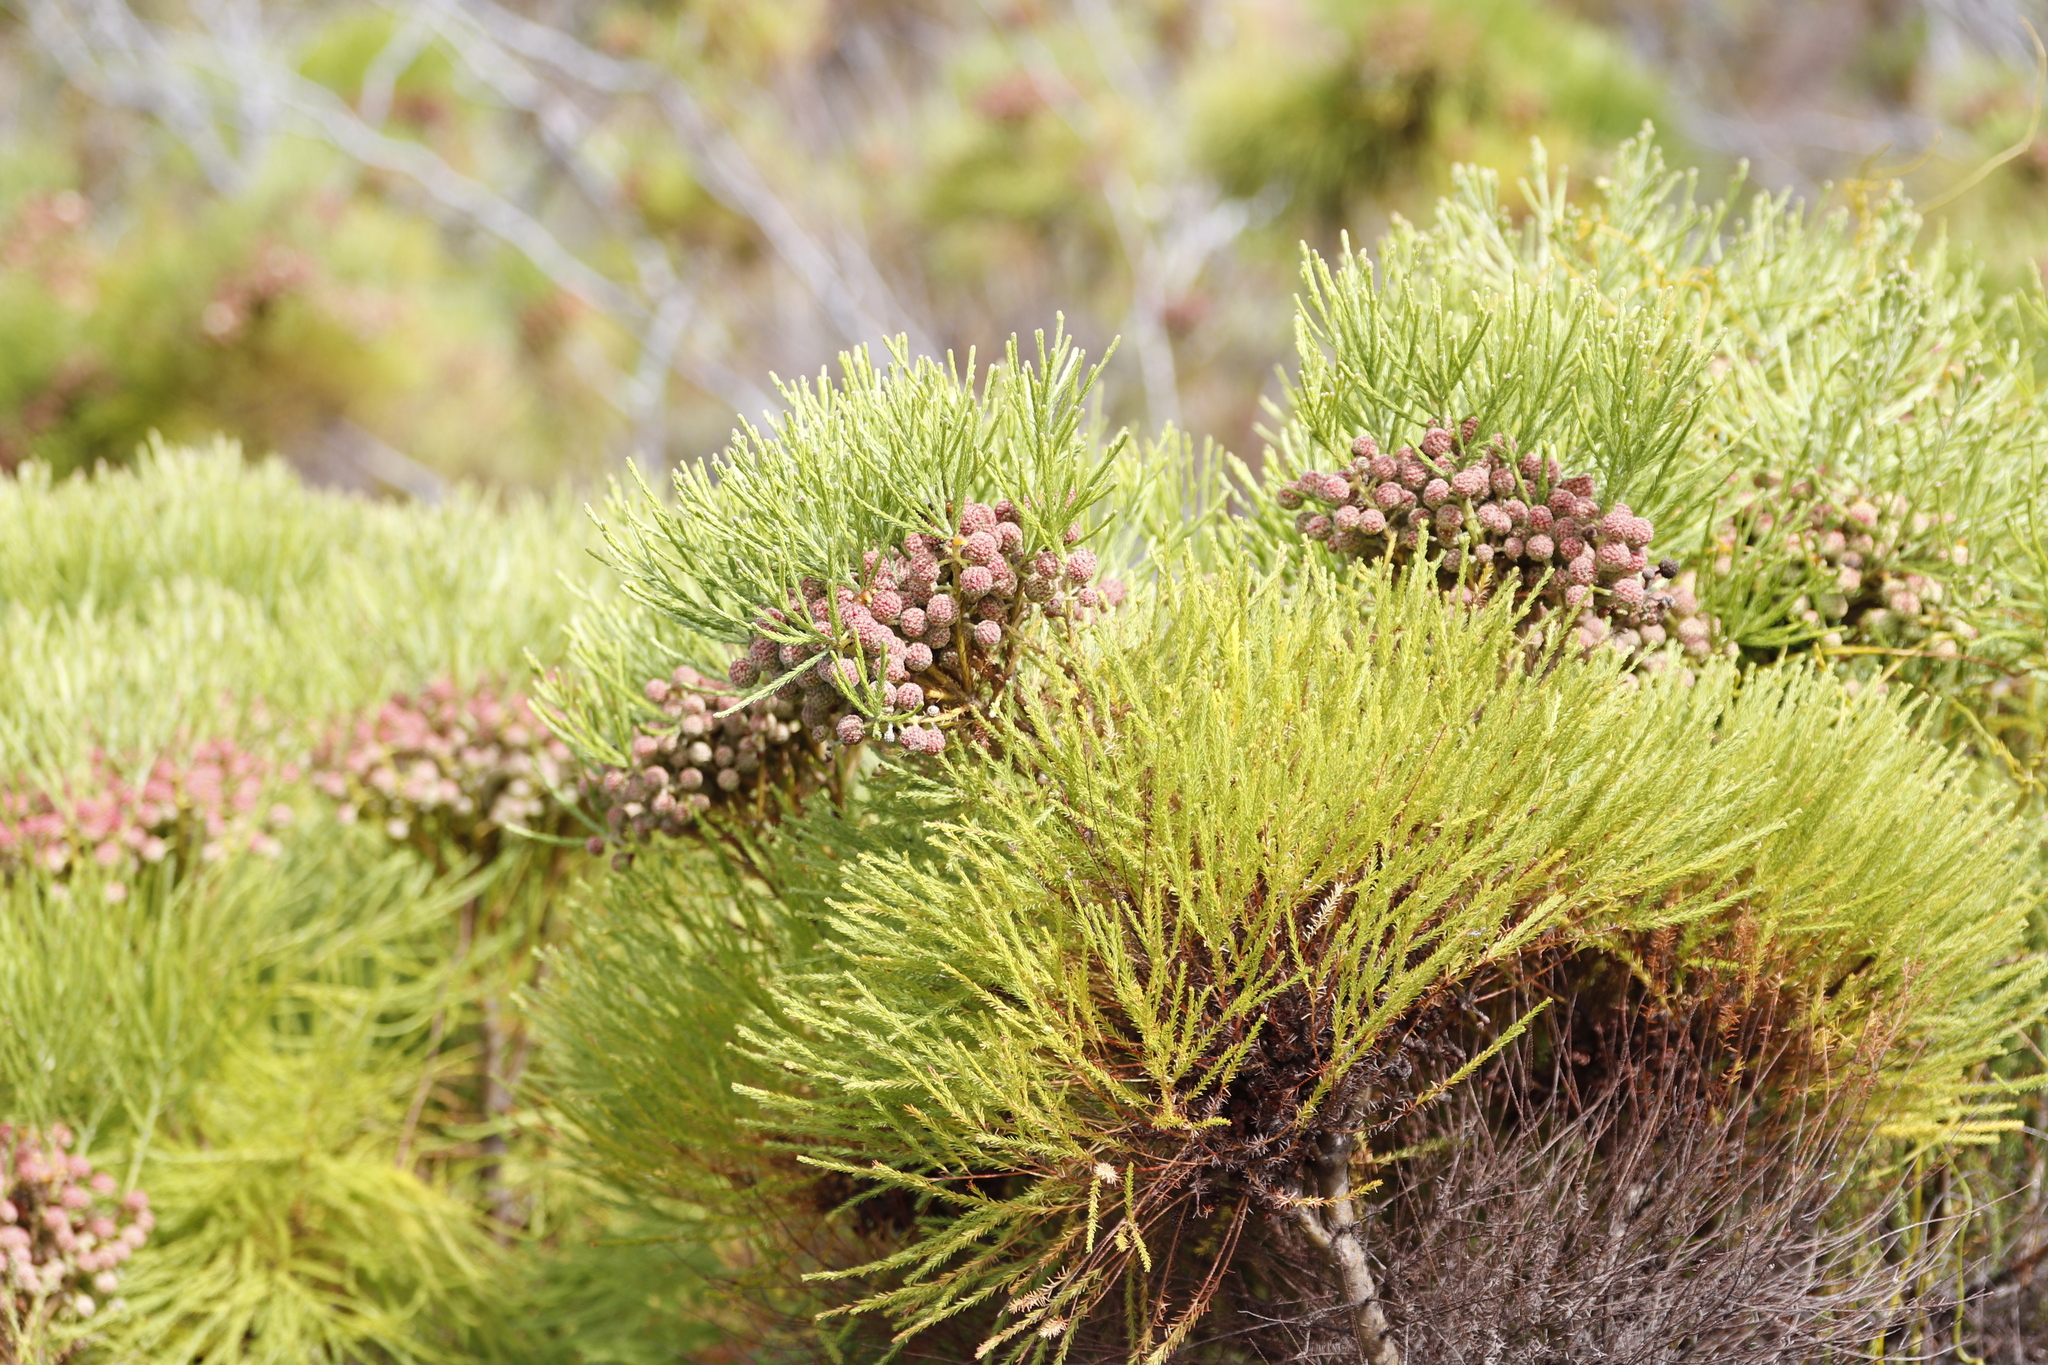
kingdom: Plantae
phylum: Tracheophyta
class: Magnoliopsida
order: Bruniales
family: Bruniaceae
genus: Berzelia
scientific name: Berzelia lanuginosa
